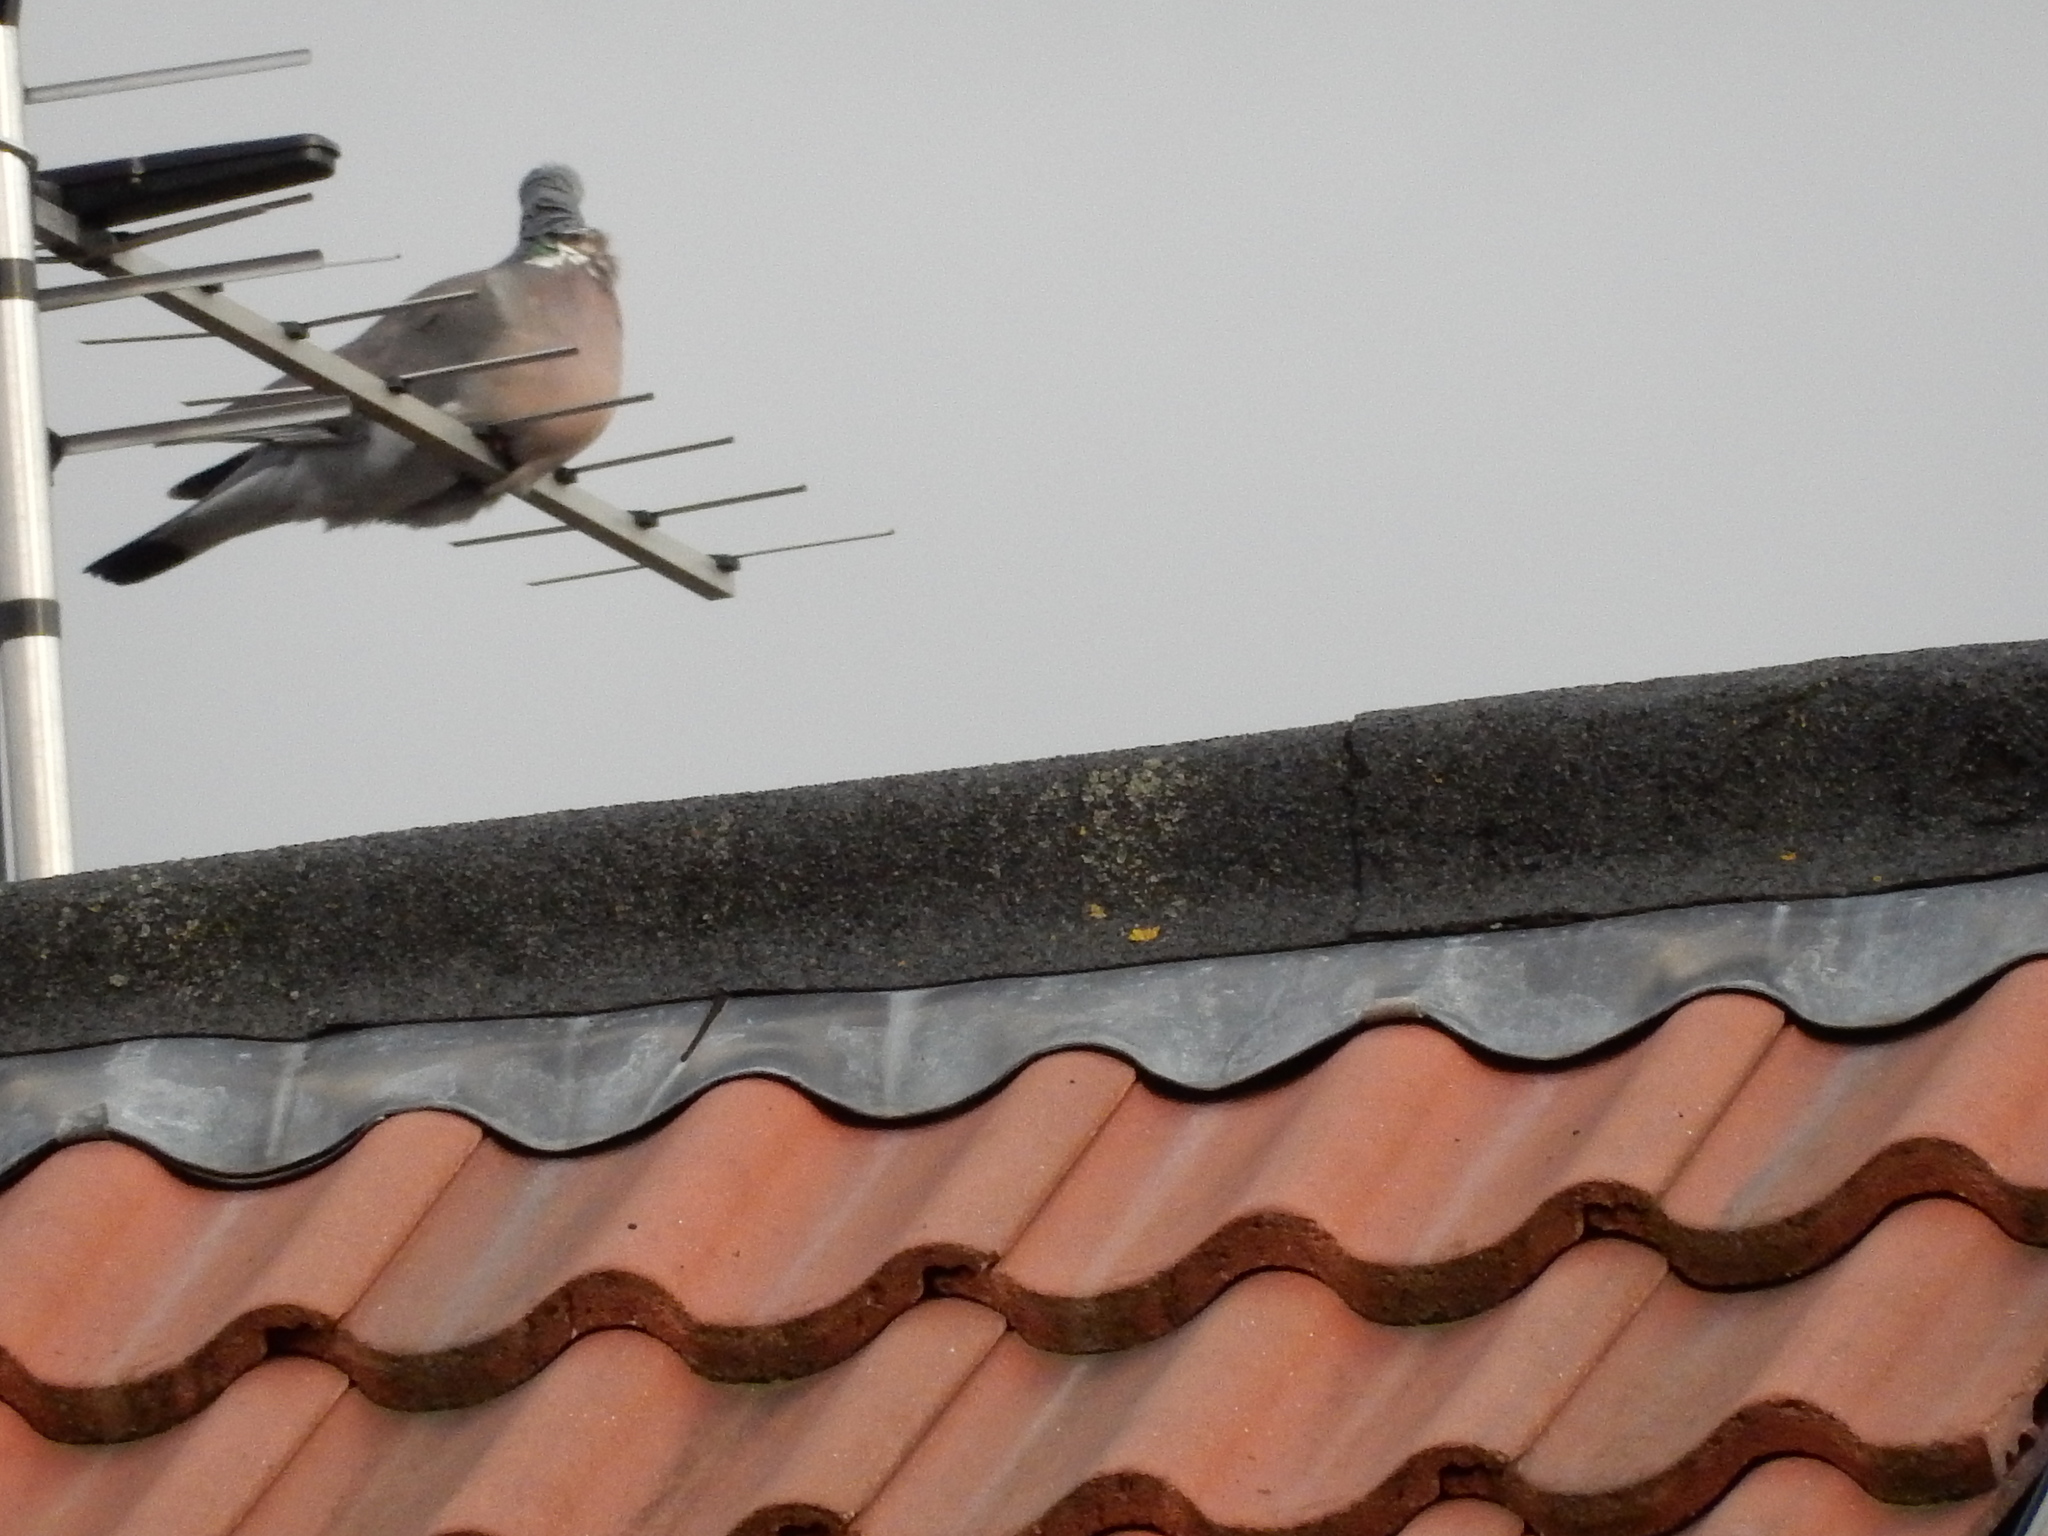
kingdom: Animalia
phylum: Chordata
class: Aves
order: Columbiformes
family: Columbidae
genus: Columba
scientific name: Columba palumbus
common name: Common wood pigeon
